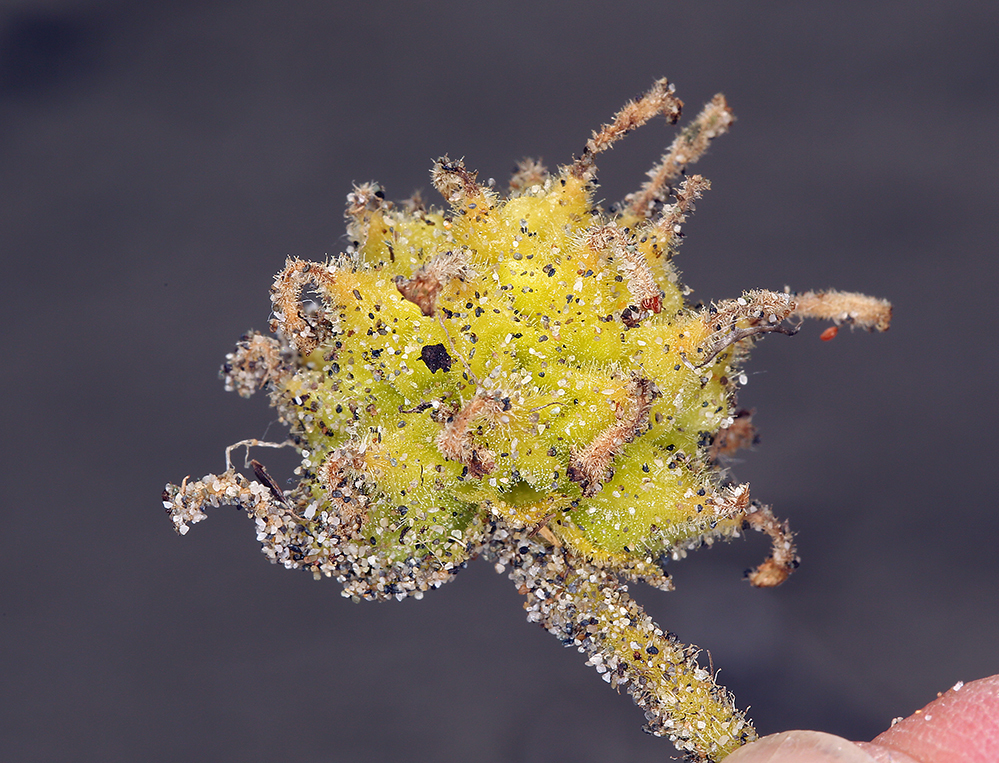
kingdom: Plantae
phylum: Tracheophyta
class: Magnoliopsida
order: Caryophyllales
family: Nyctaginaceae
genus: Abronia
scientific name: Abronia latifolia
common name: Yellow sand-verbena
